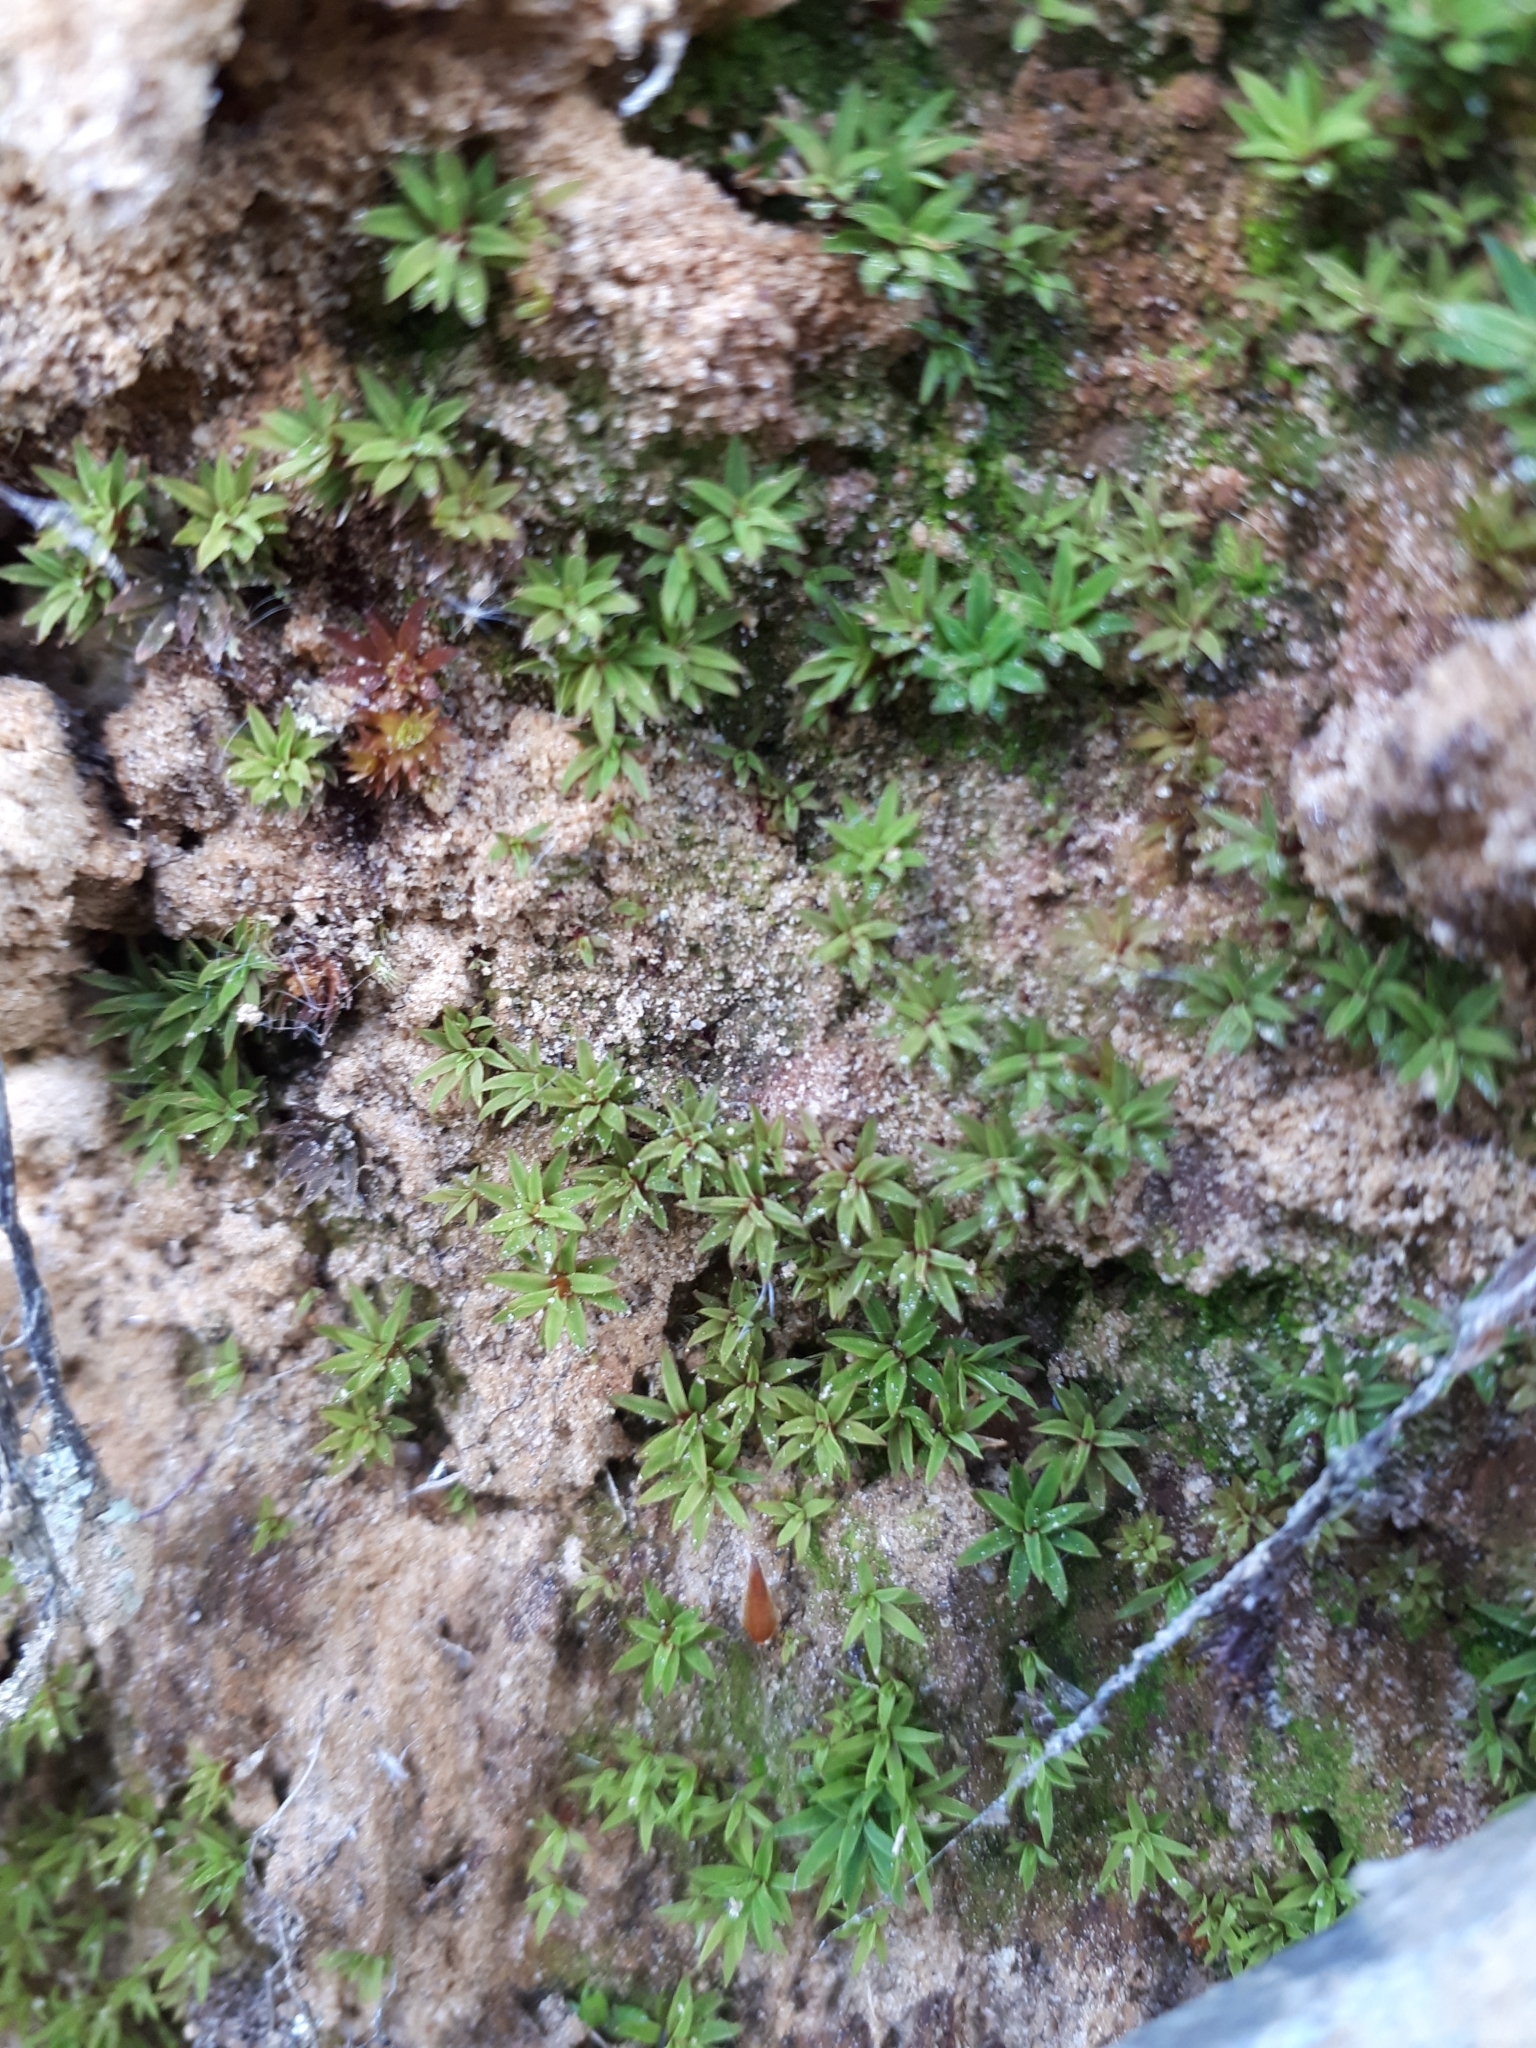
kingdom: Plantae
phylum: Bryophyta
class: Polytrichopsida
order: Polytrichales
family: Polytrichaceae
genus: Pogonatum
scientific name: Pogonatum aloides
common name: Aloe haircap
